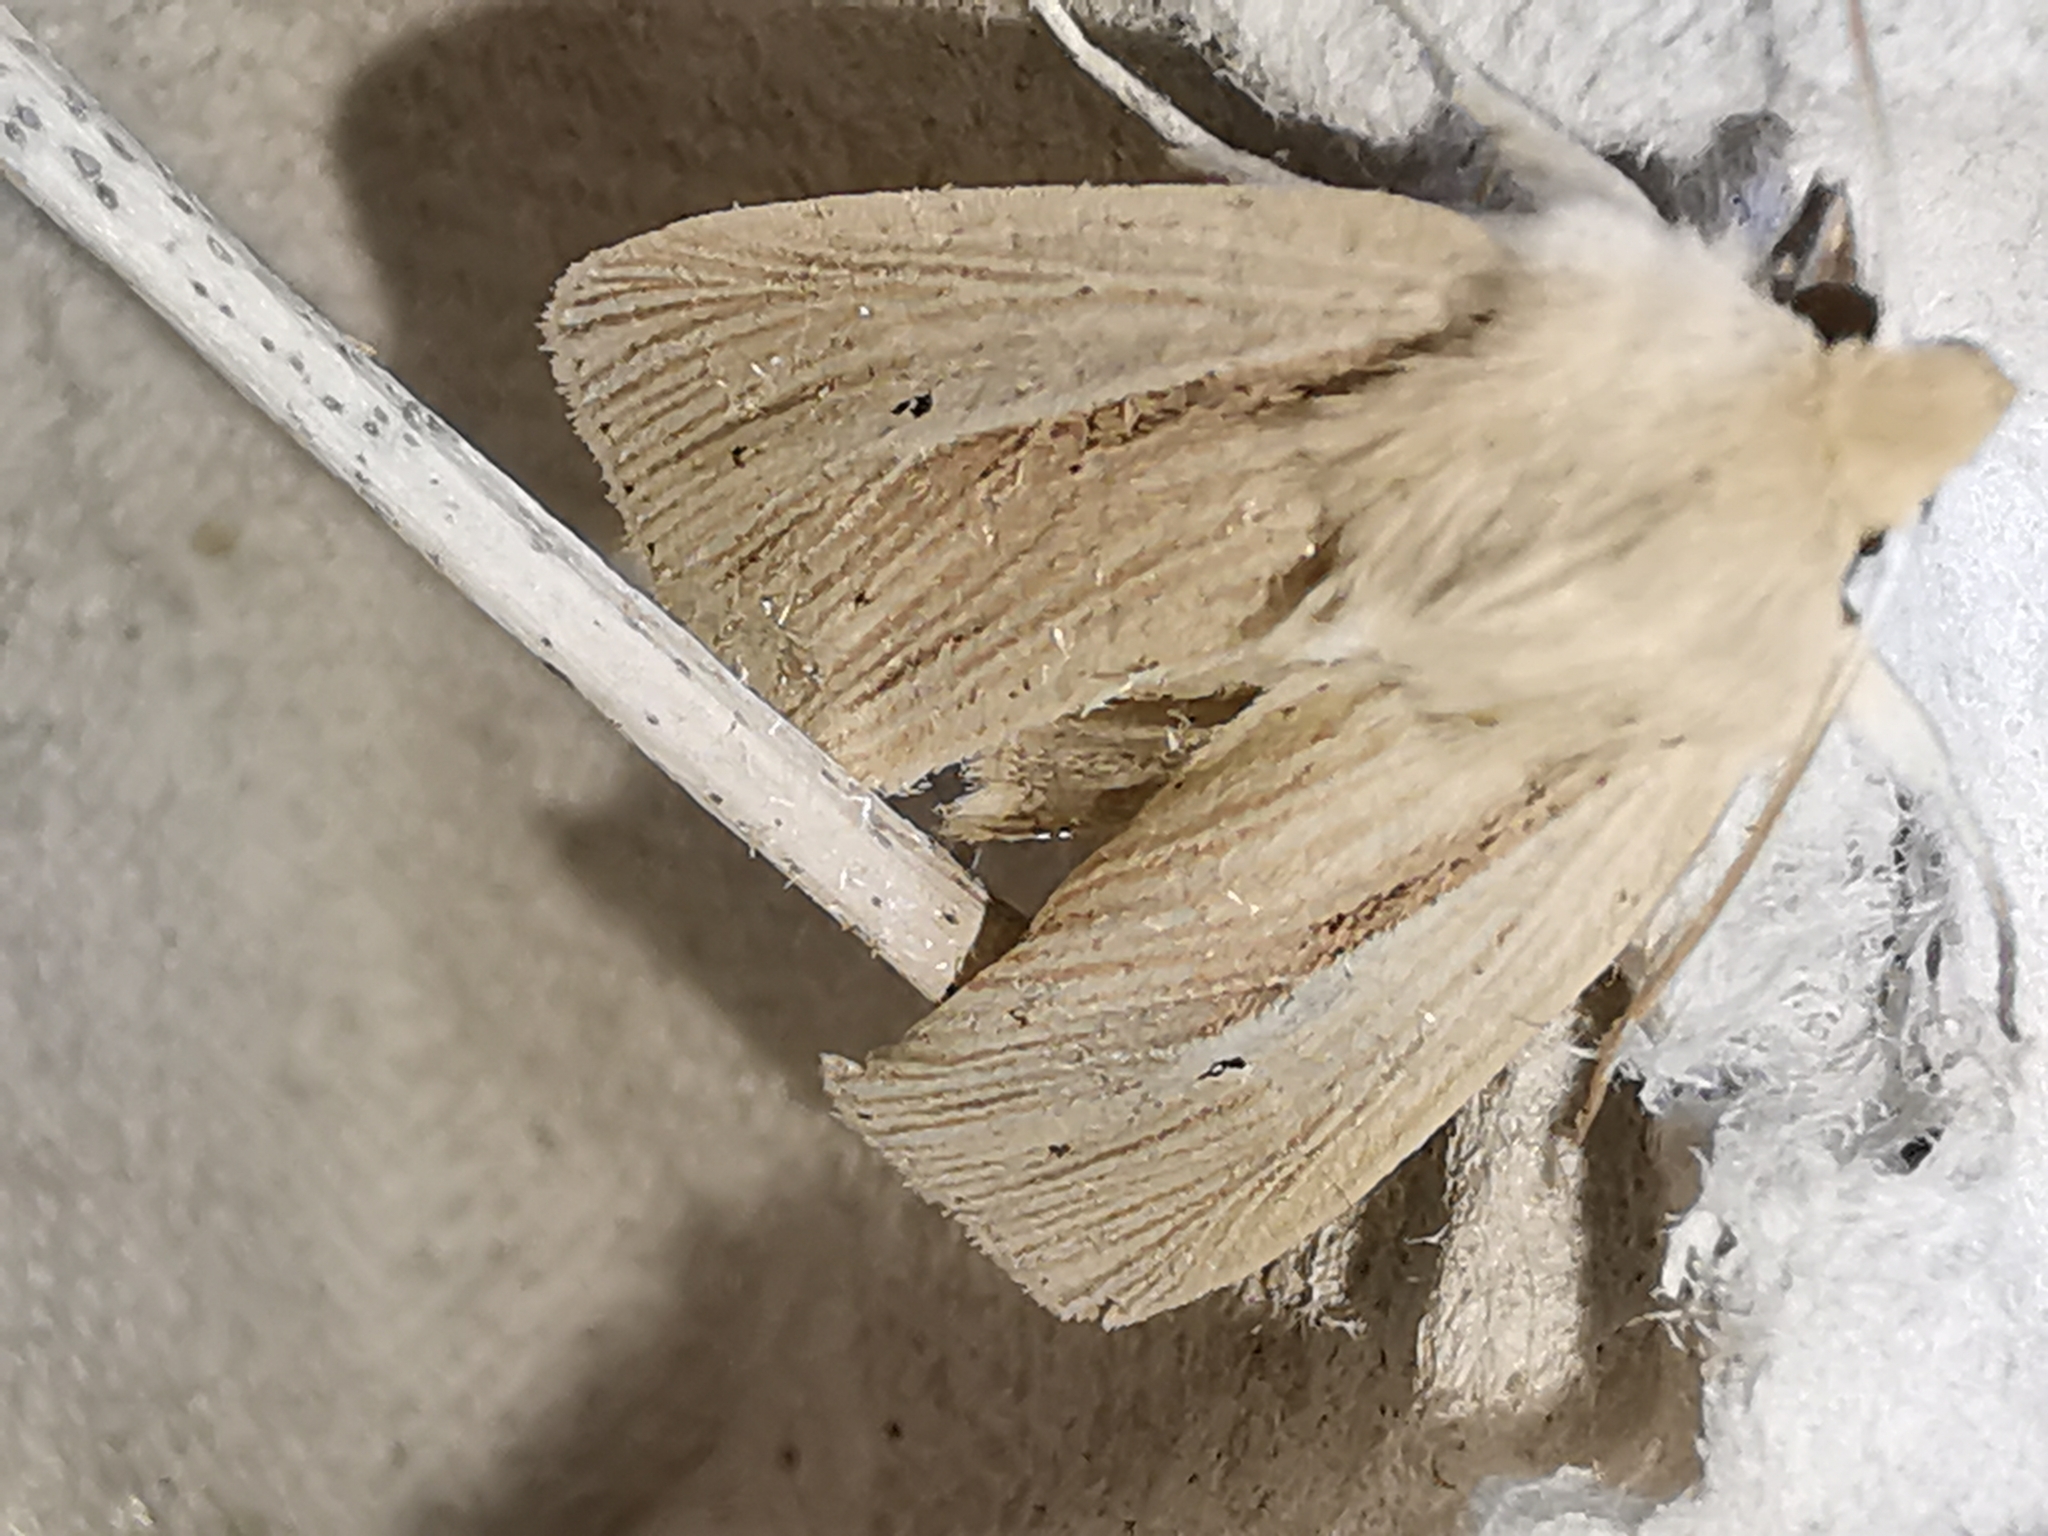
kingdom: Animalia
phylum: Arthropoda
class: Insecta
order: Lepidoptera
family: Noctuidae
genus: Mythimna
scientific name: Mythimna impura
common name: Smoky wainscot
